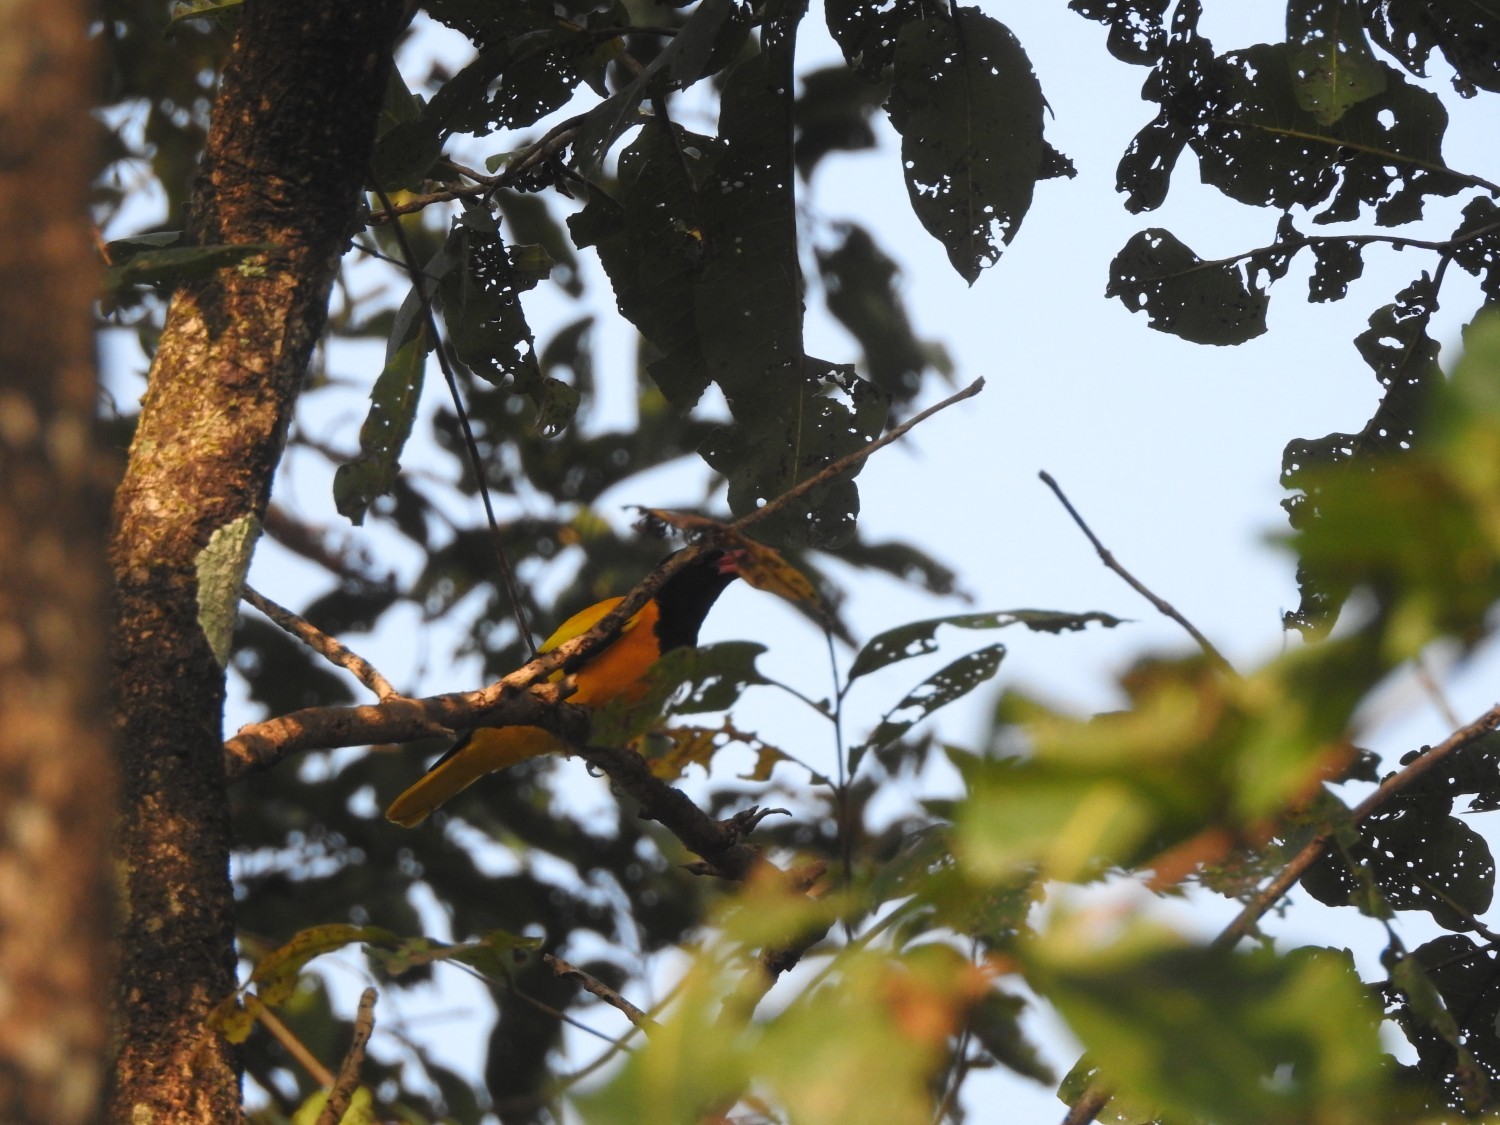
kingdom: Animalia
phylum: Chordata
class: Aves
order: Passeriformes
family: Oriolidae
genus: Oriolus
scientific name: Oriolus xanthornus
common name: Black-hooded oriole
